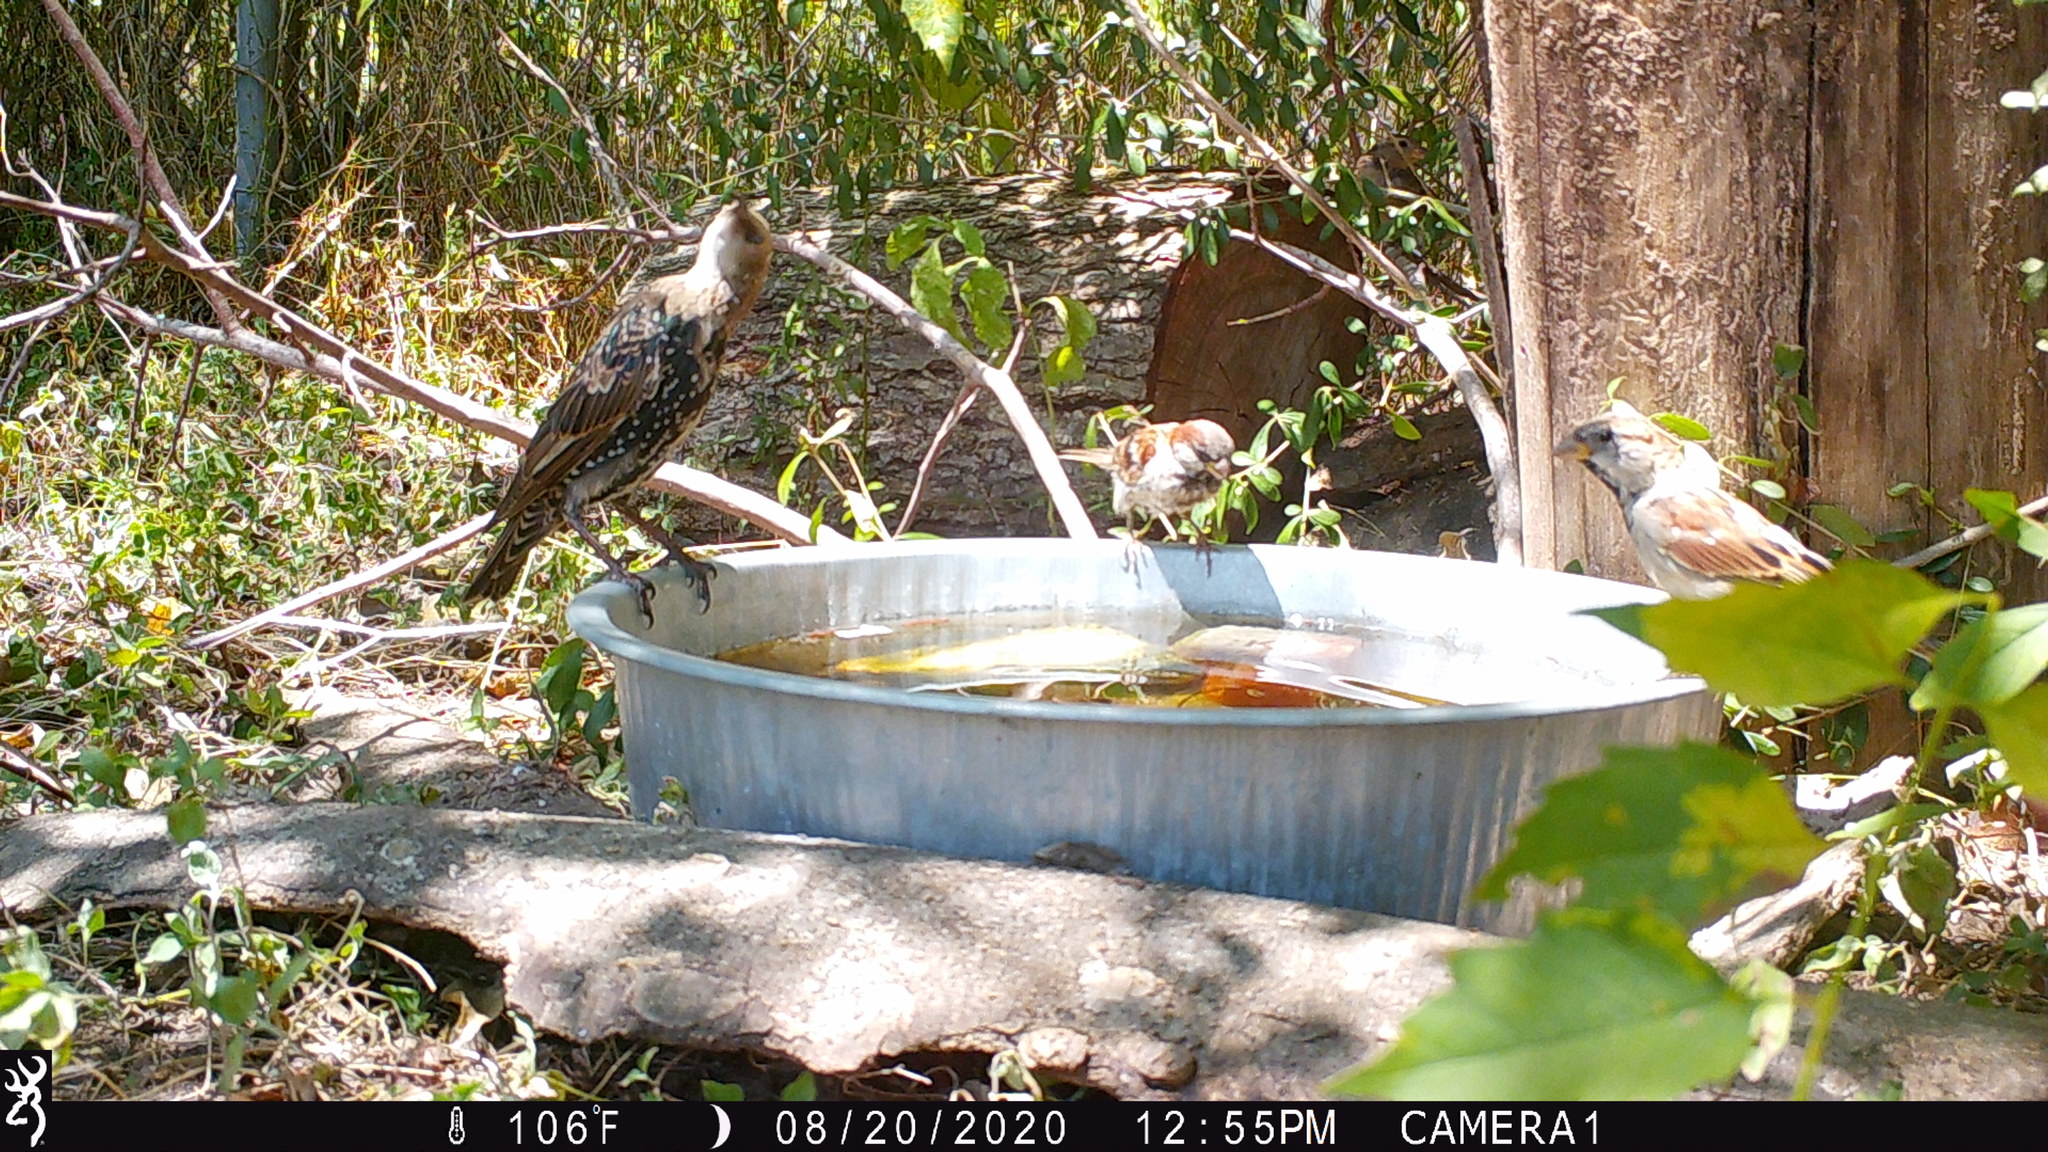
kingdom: Animalia
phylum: Chordata
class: Aves
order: Passeriformes
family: Sturnidae
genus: Sturnus
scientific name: Sturnus vulgaris
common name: Common starling
